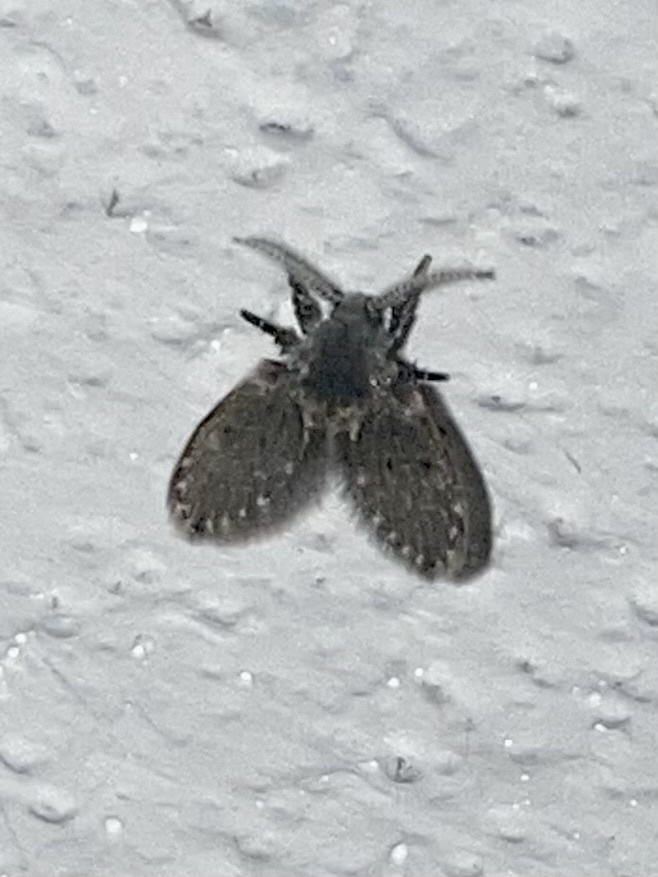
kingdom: Animalia
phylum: Arthropoda
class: Insecta
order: Diptera
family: Psychodidae
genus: Clogmia
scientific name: Clogmia albipunctatus
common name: White-spotted moth fly
